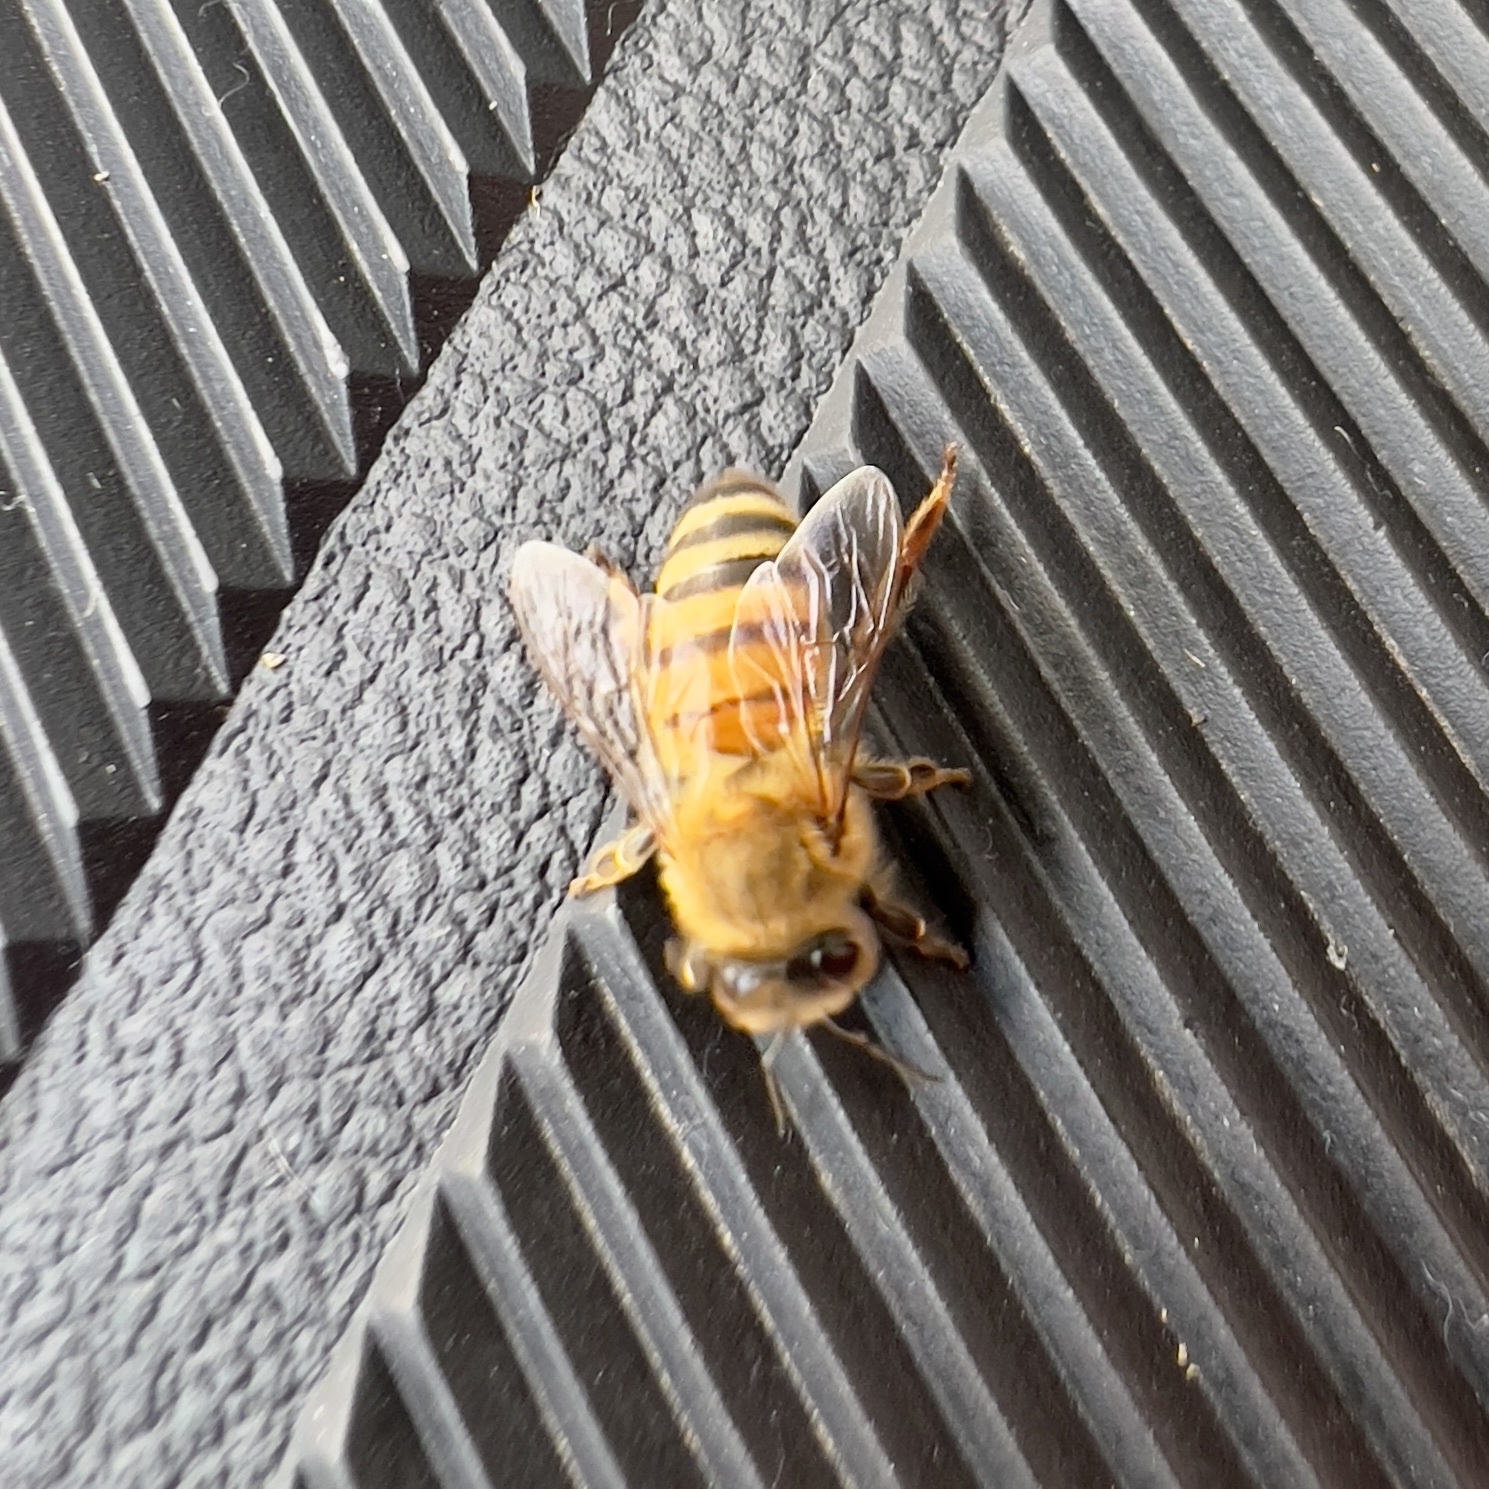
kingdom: Animalia
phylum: Arthropoda
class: Insecta
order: Hymenoptera
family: Apidae
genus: Apis
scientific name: Apis mellifera
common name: Honey bee
